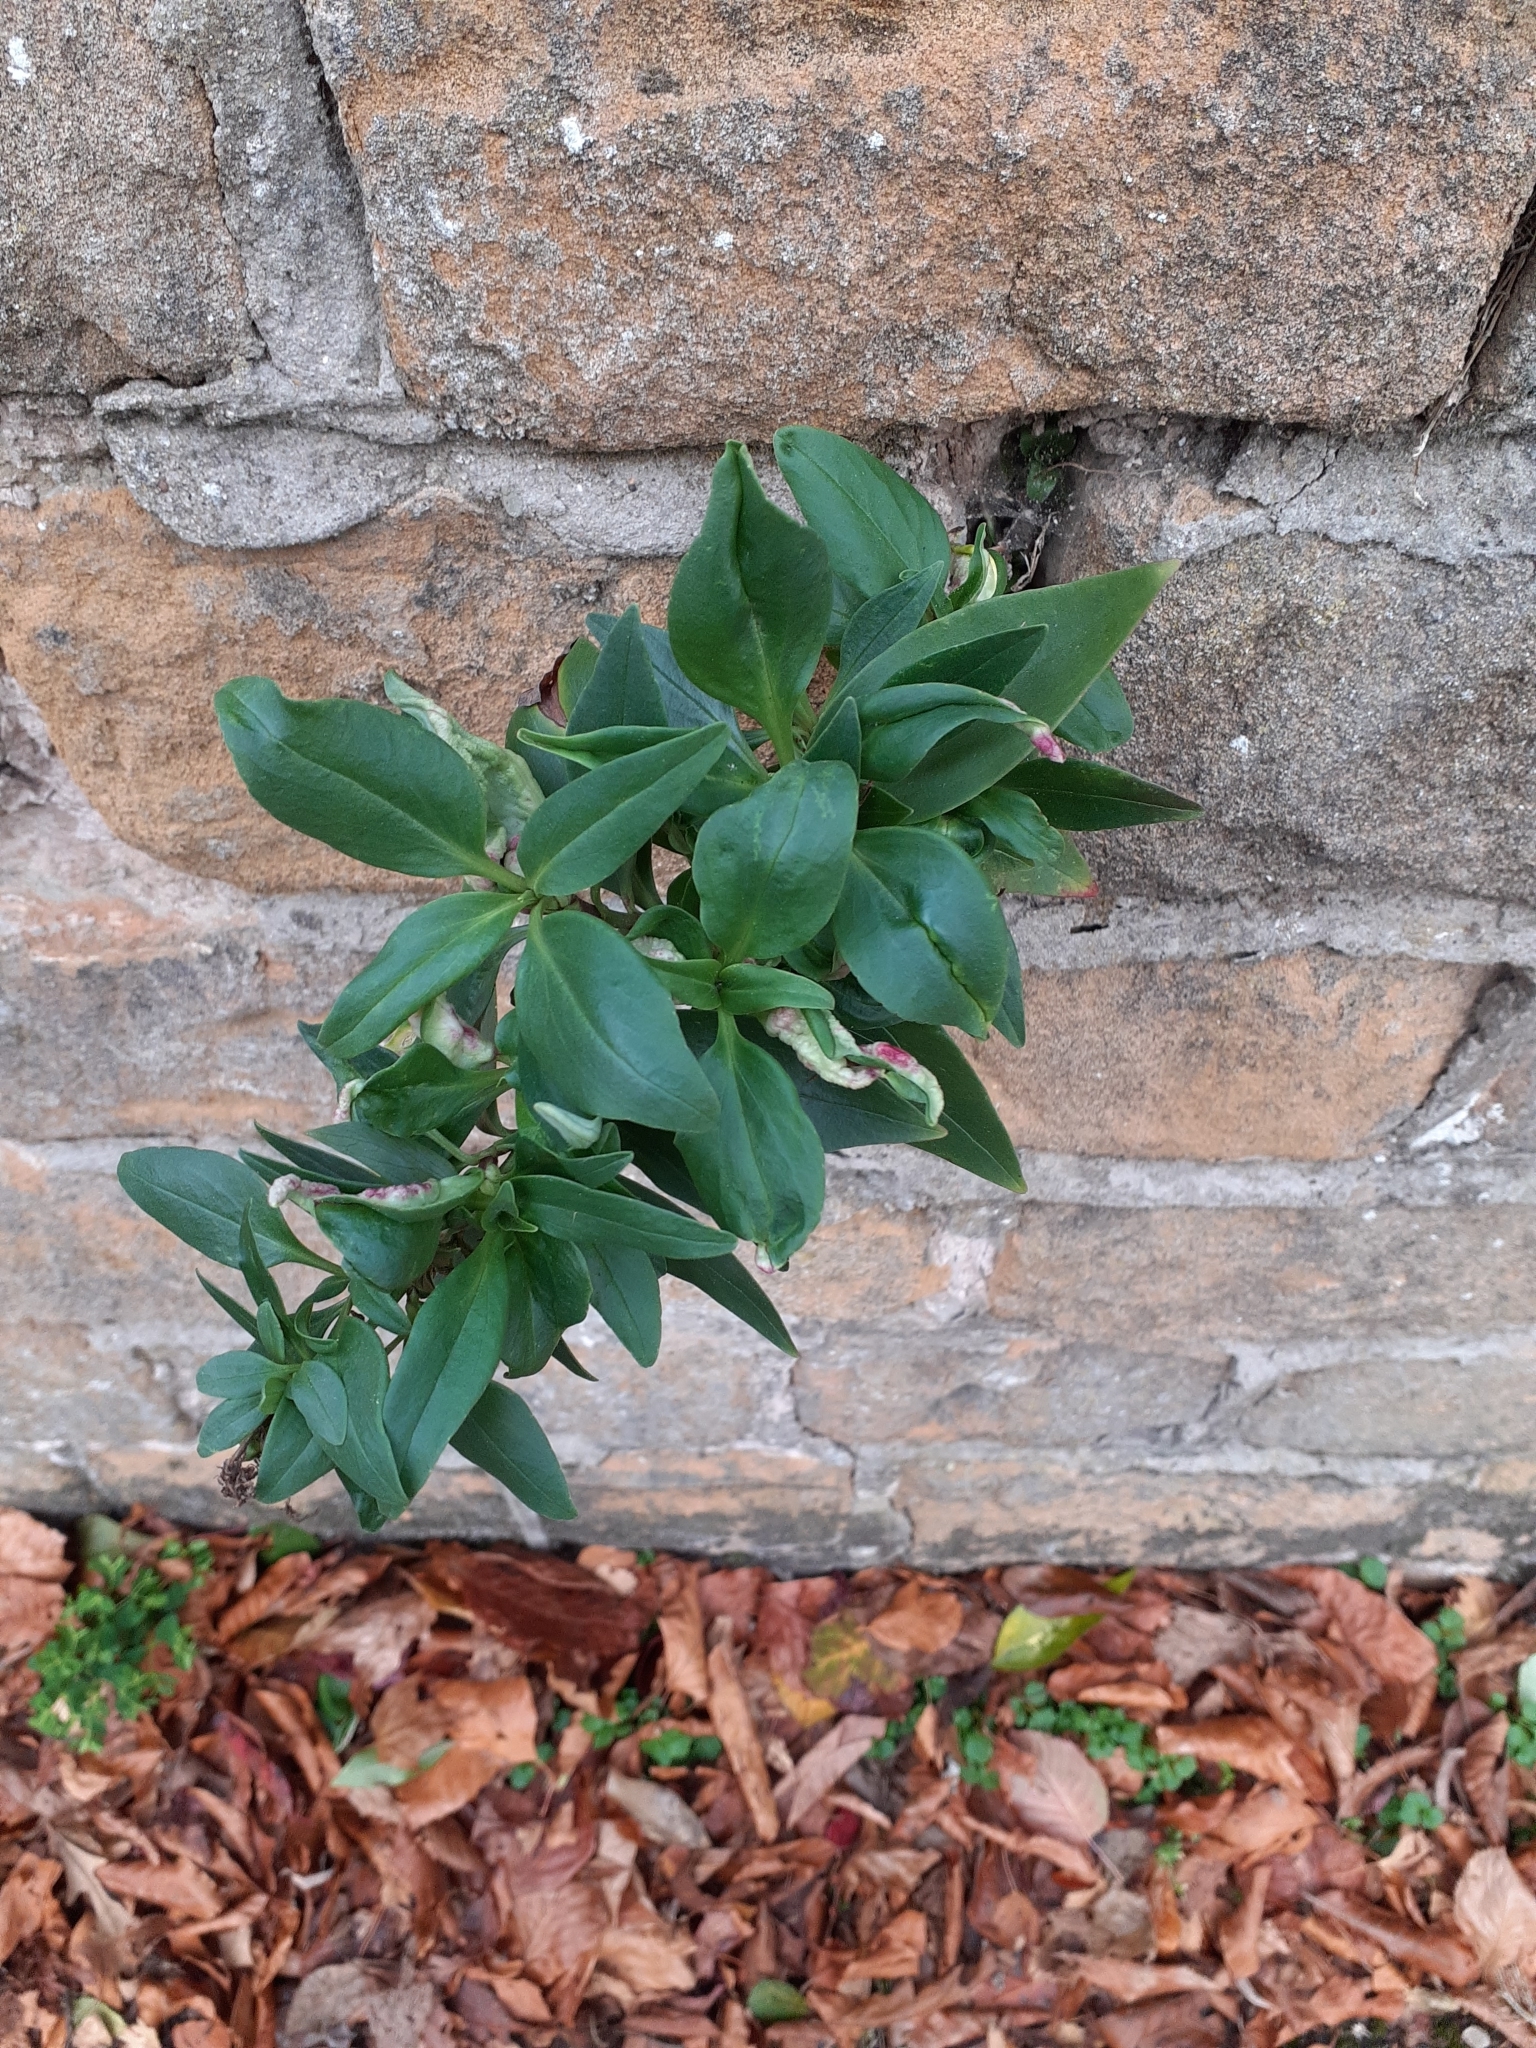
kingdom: Animalia
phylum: Arthropoda
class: Insecta
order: Hemiptera
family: Triozidae
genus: Trioza
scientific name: Trioza centranthi
